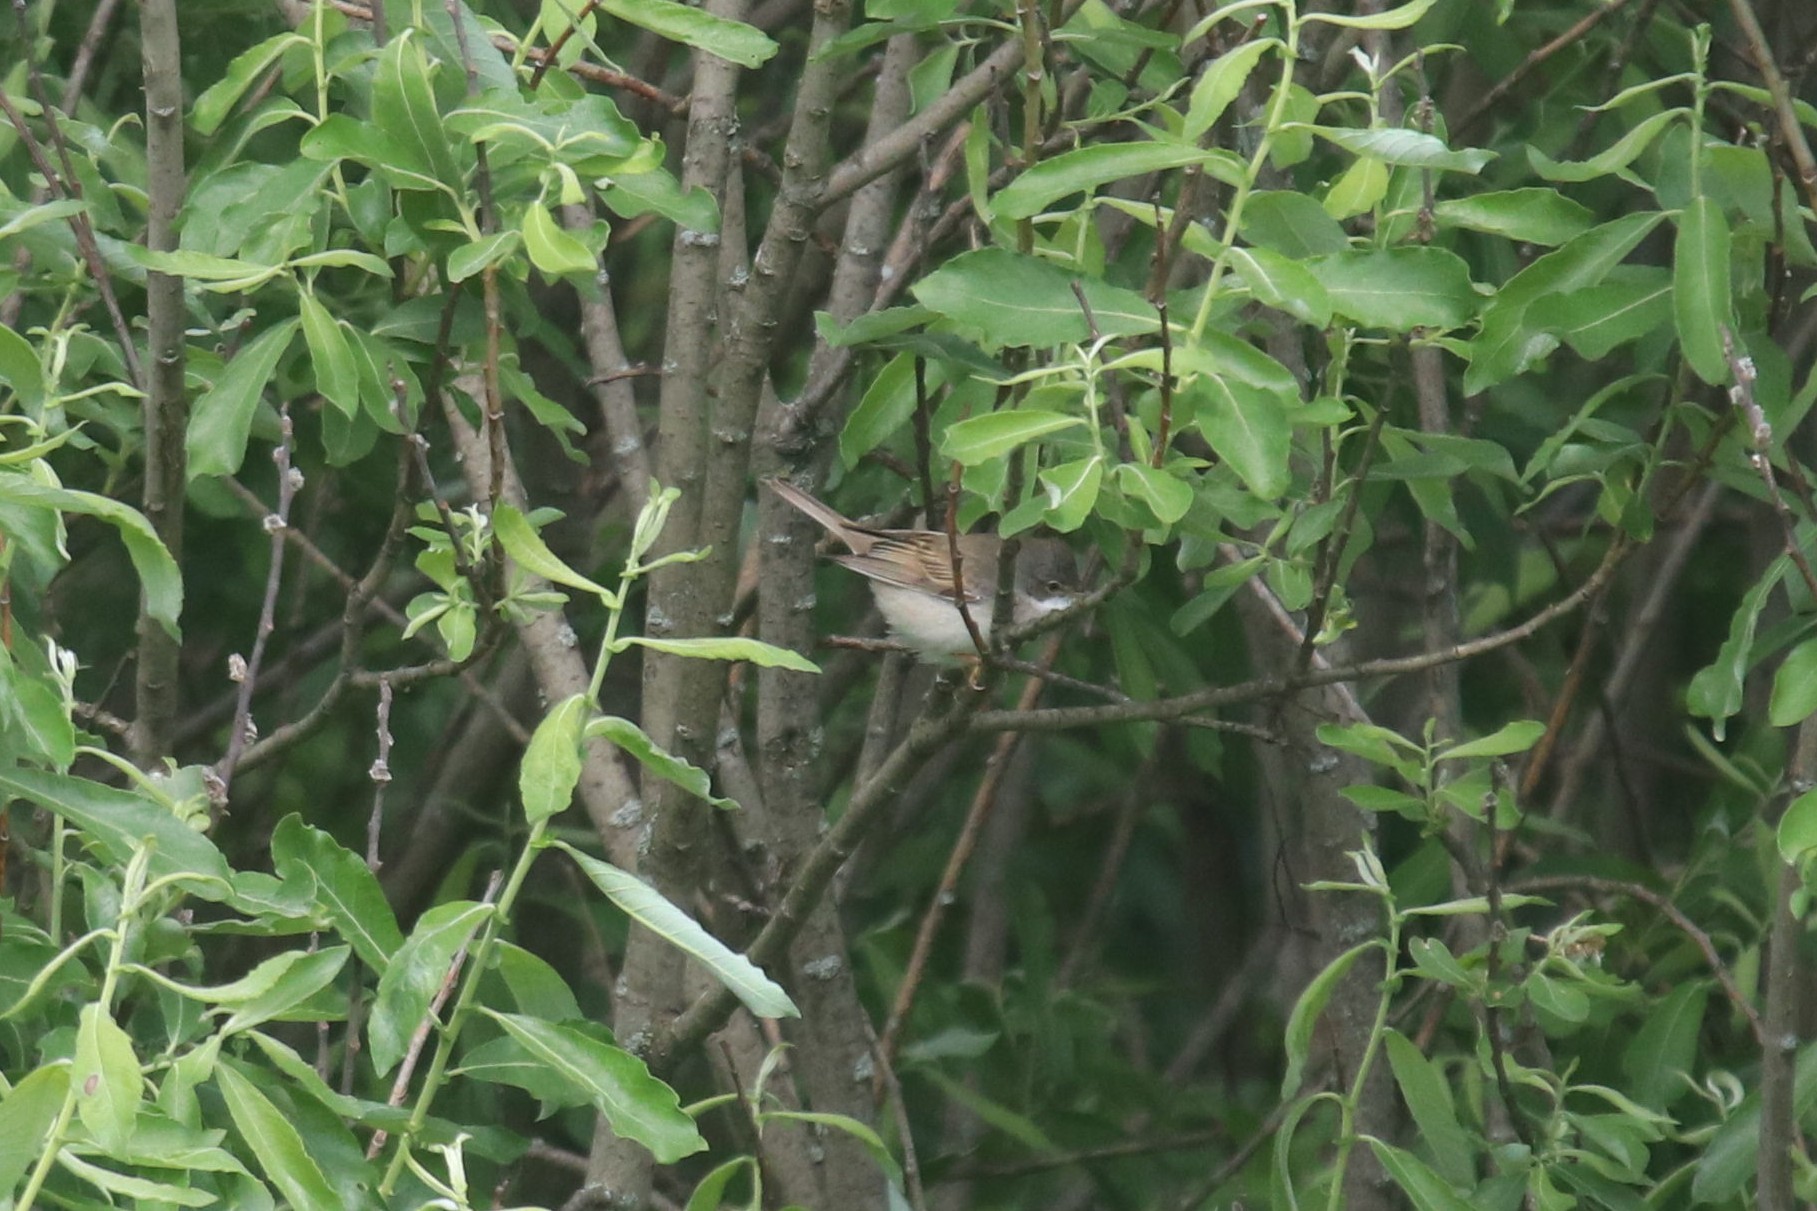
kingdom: Animalia
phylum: Chordata
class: Aves
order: Passeriformes
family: Sylviidae
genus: Sylvia
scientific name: Sylvia communis
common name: Common whitethroat
